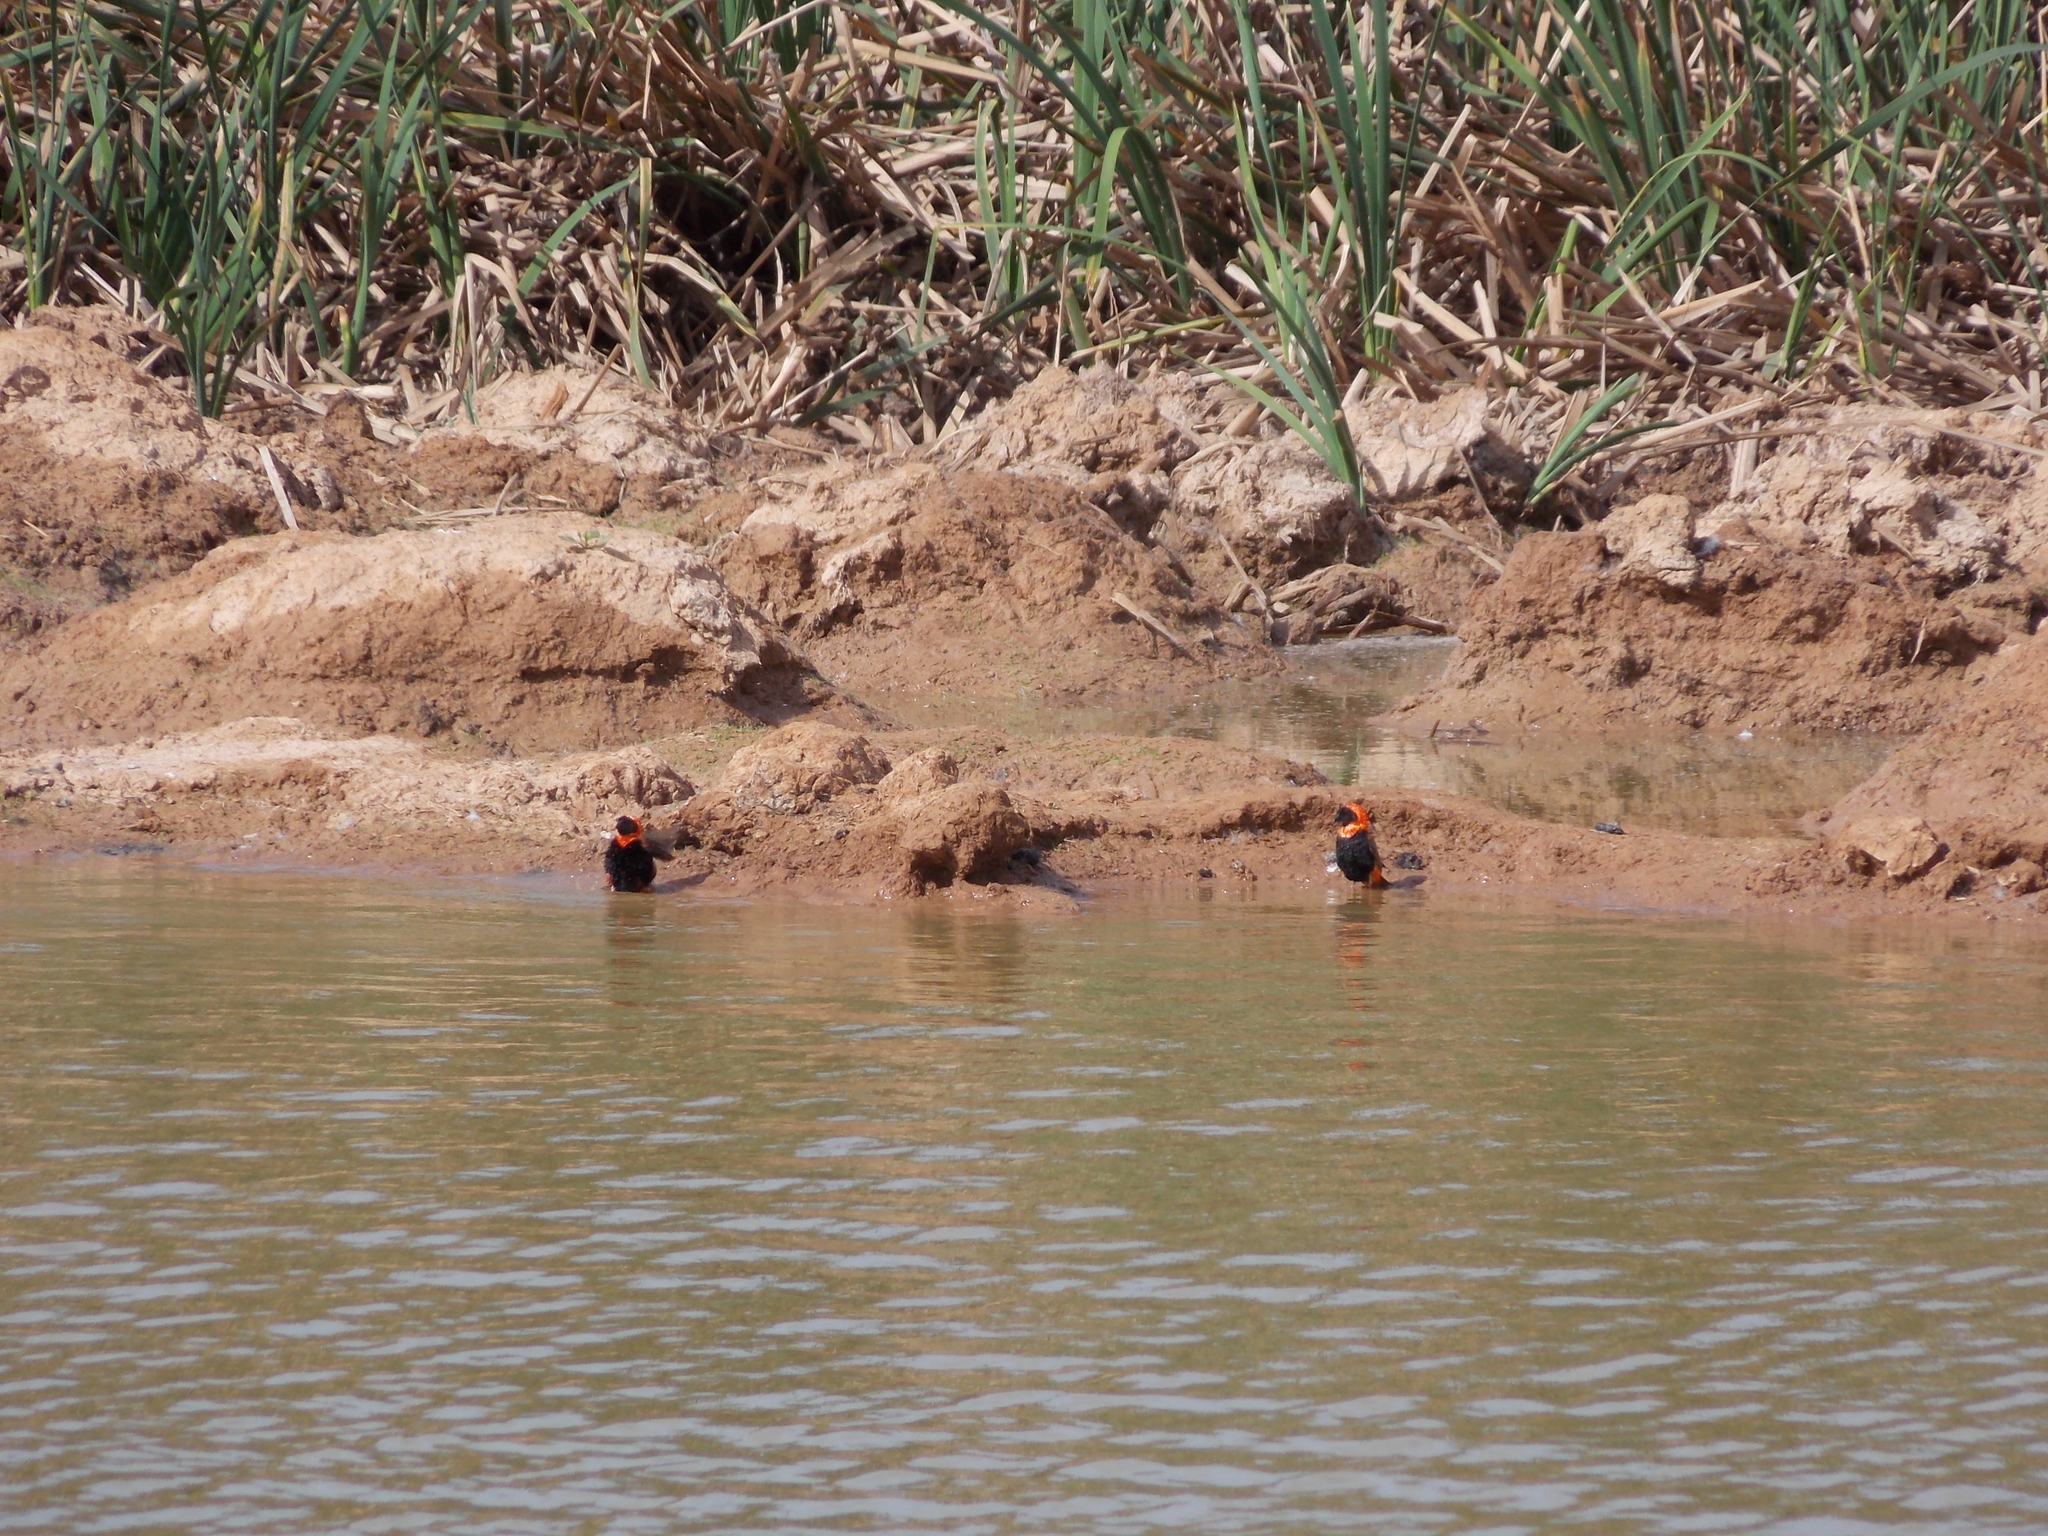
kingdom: Animalia
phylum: Chordata
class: Aves
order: Passeriformes
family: Ploceidae
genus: Euplectes
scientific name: Euplectes orix
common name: Southern red bishop
